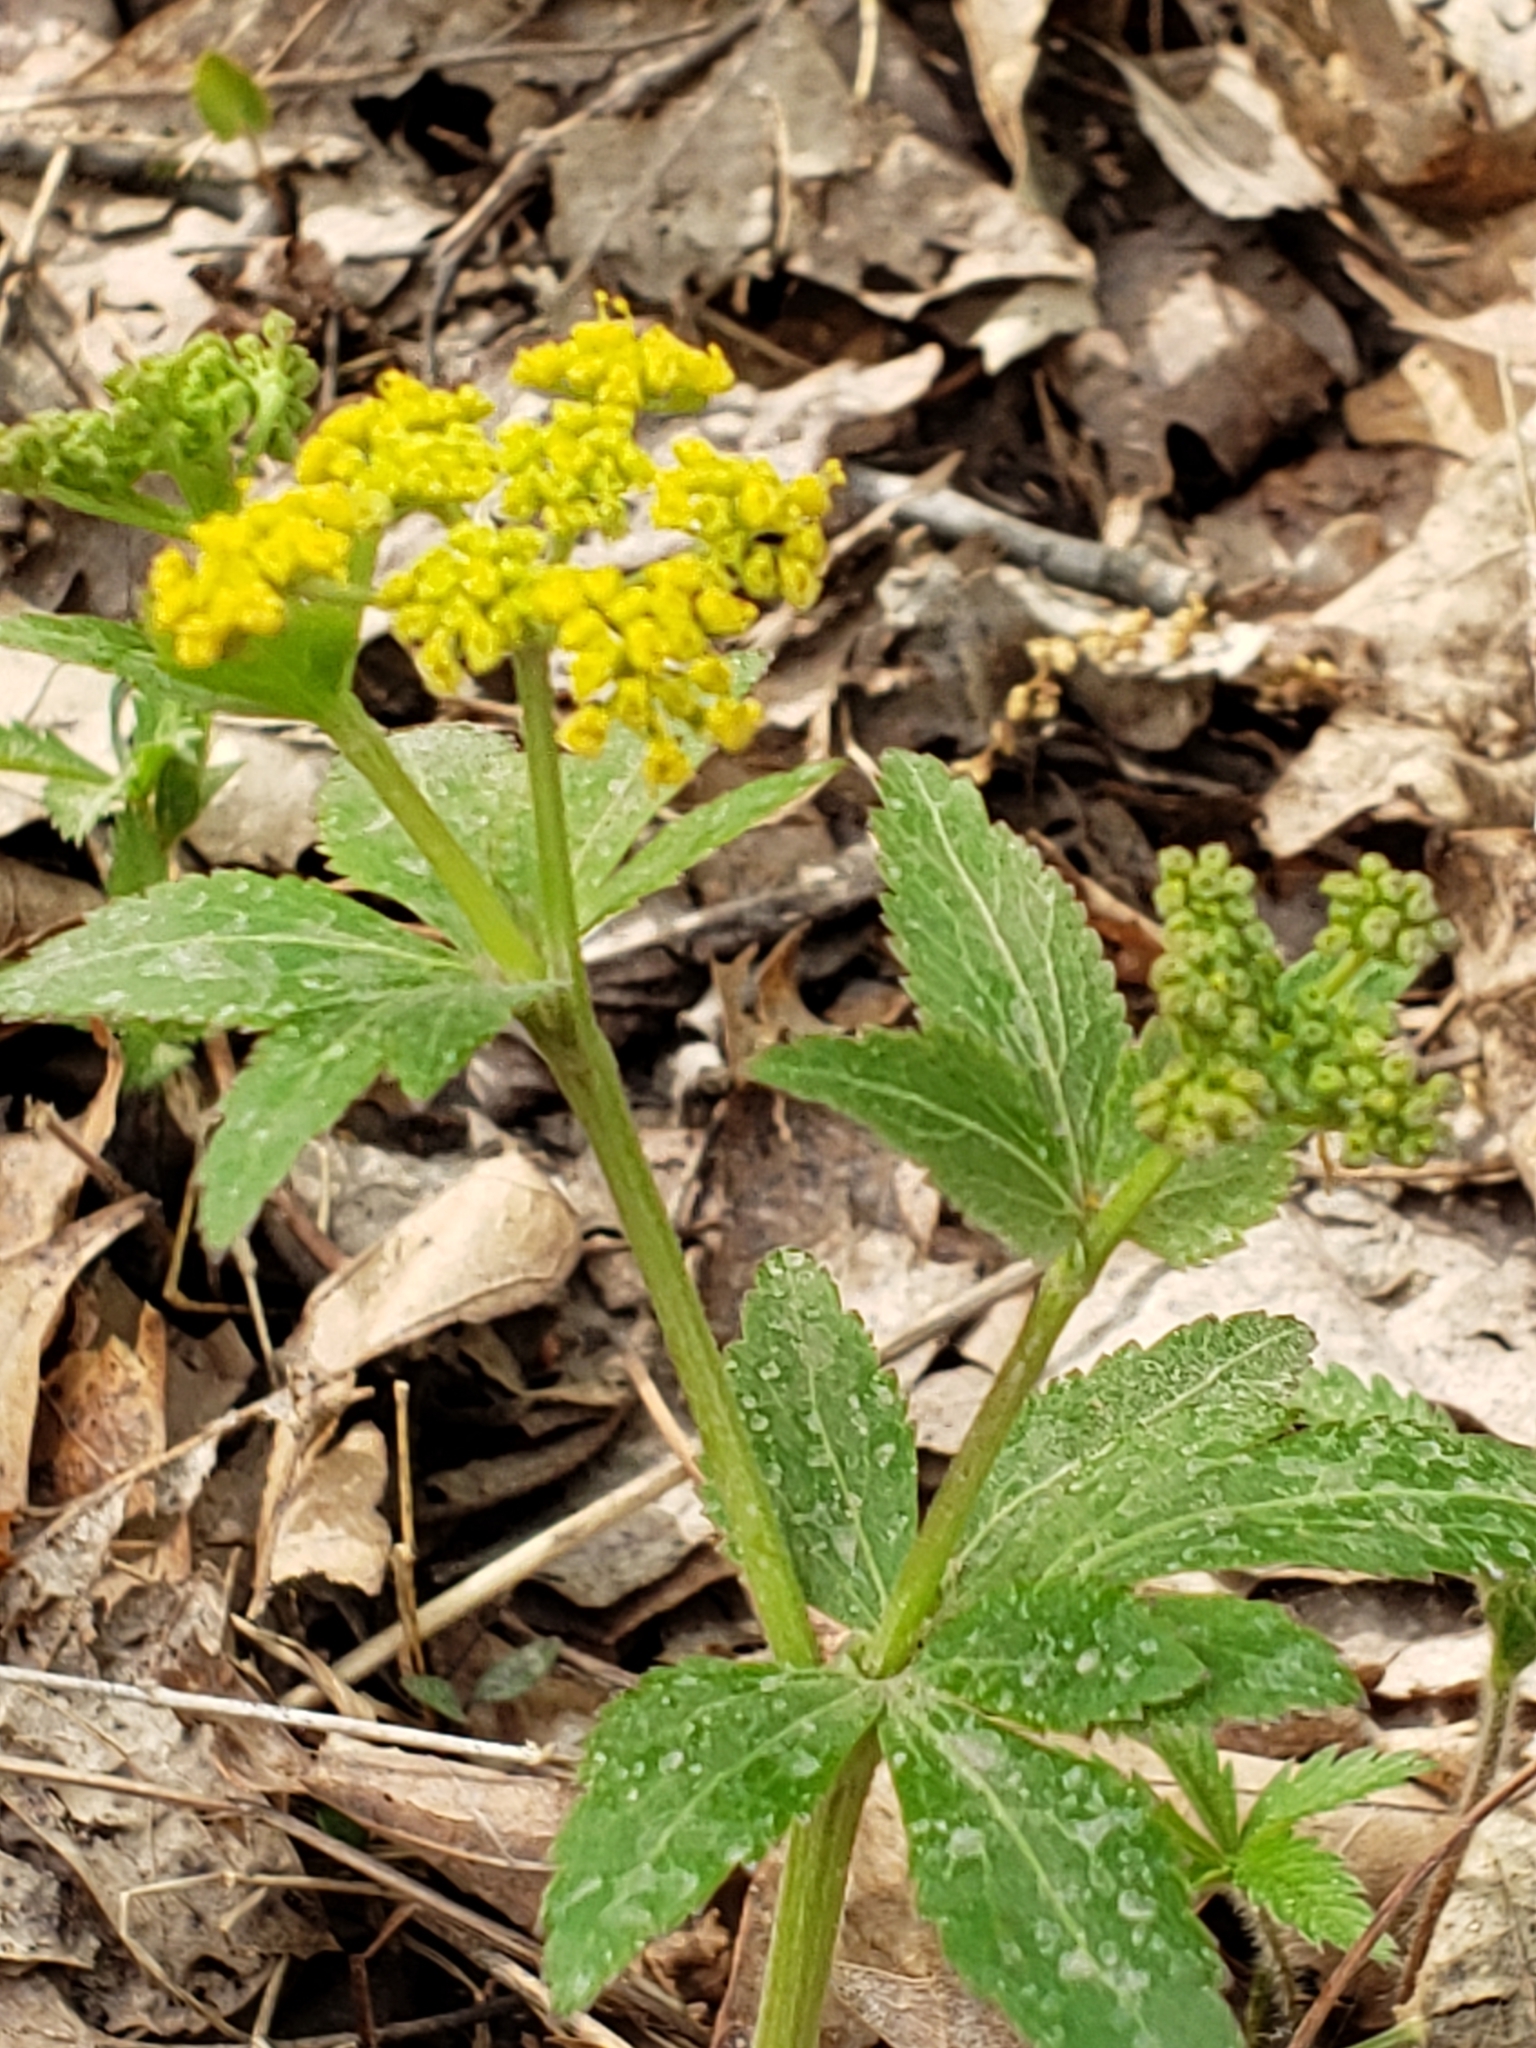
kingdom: Plantae
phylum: Tracheophyta
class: Magnoliopsida
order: Apiales
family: Apiaceae
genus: Zizia
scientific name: Zizia aurea
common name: Golden alexanders
